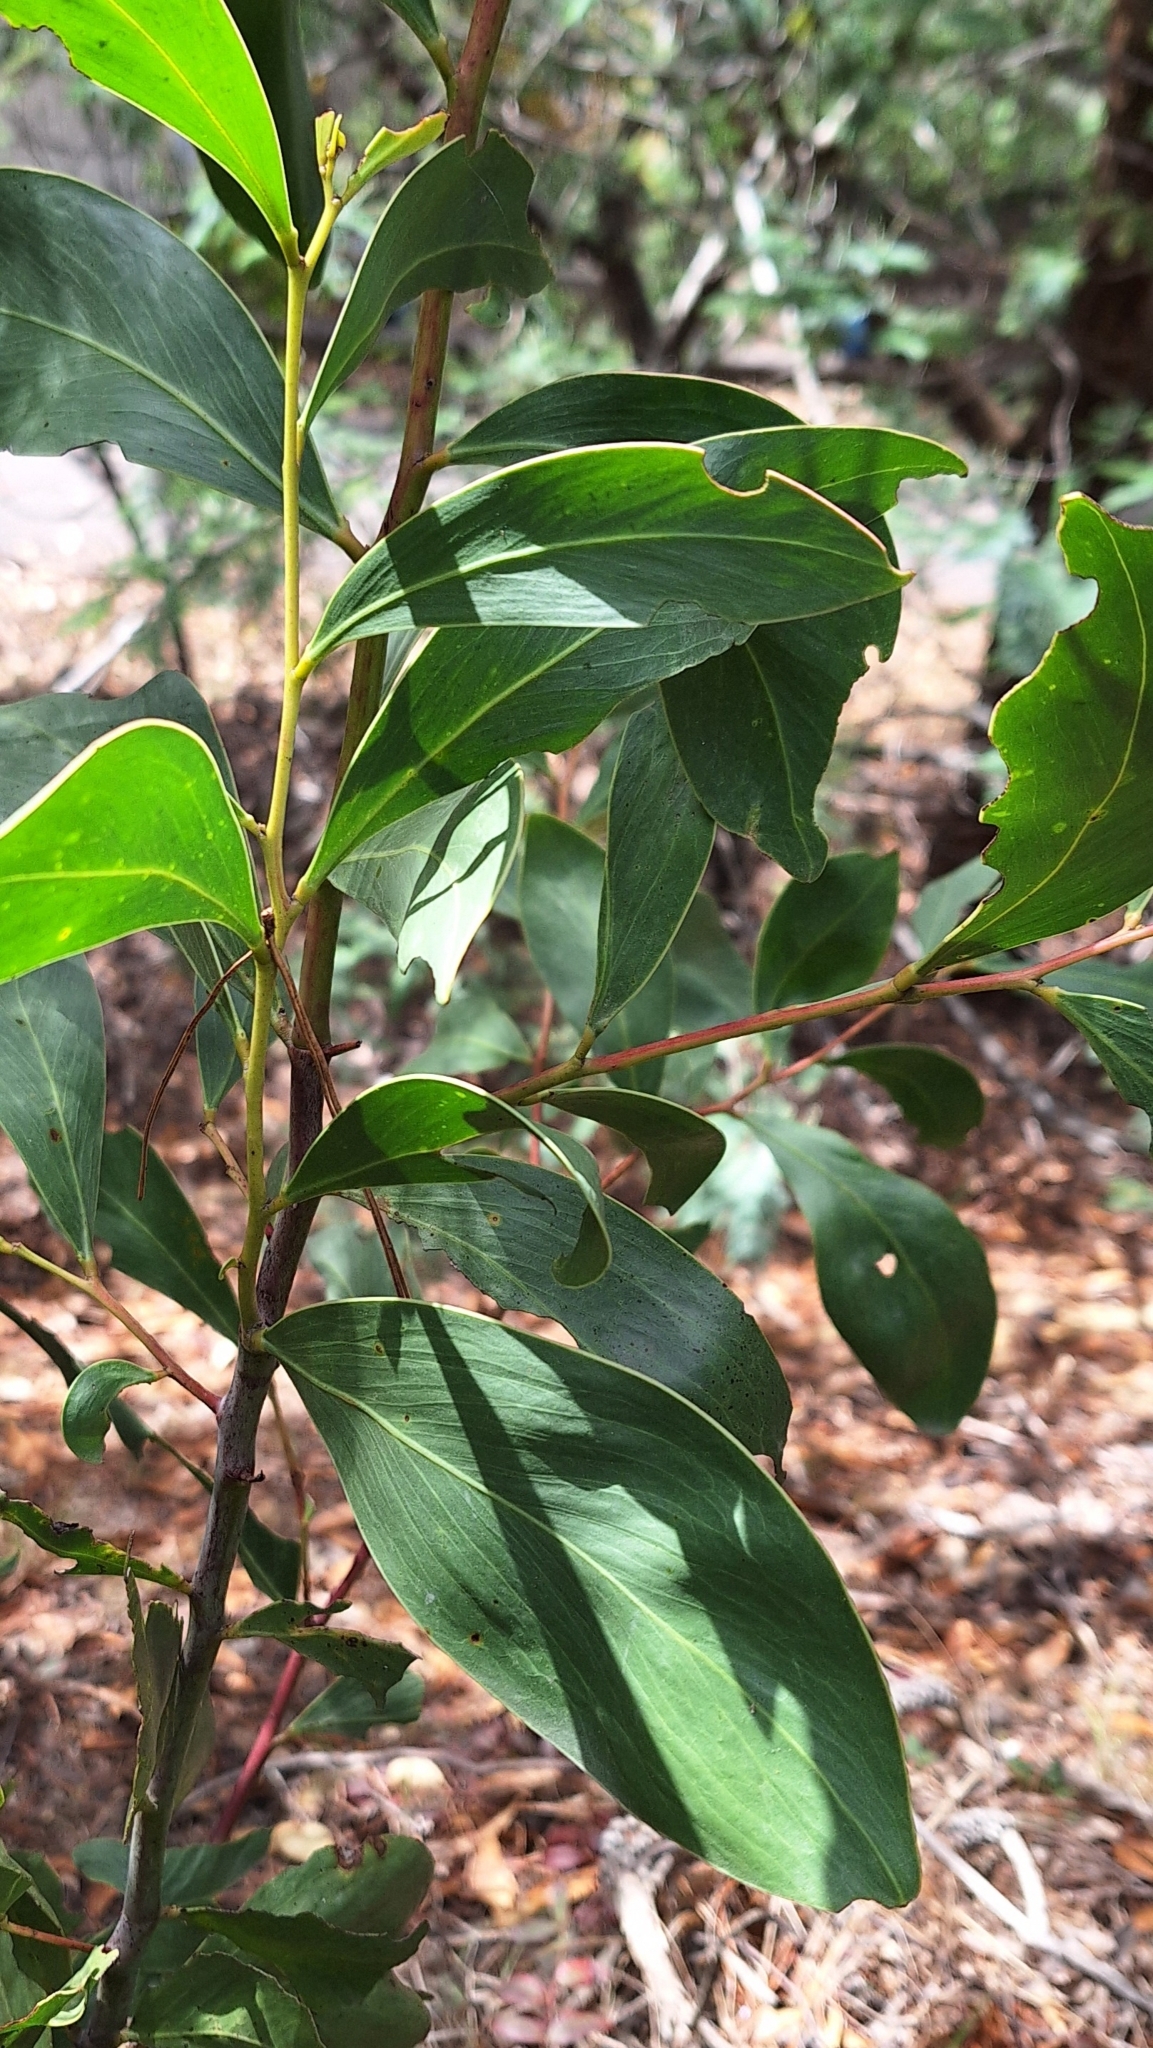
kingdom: Plantae
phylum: Tracheophyta
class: Magnoliopsida
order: Fabales
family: Fabaceae
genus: Acacia
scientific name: Acacia pycnantha
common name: Golden wattle
